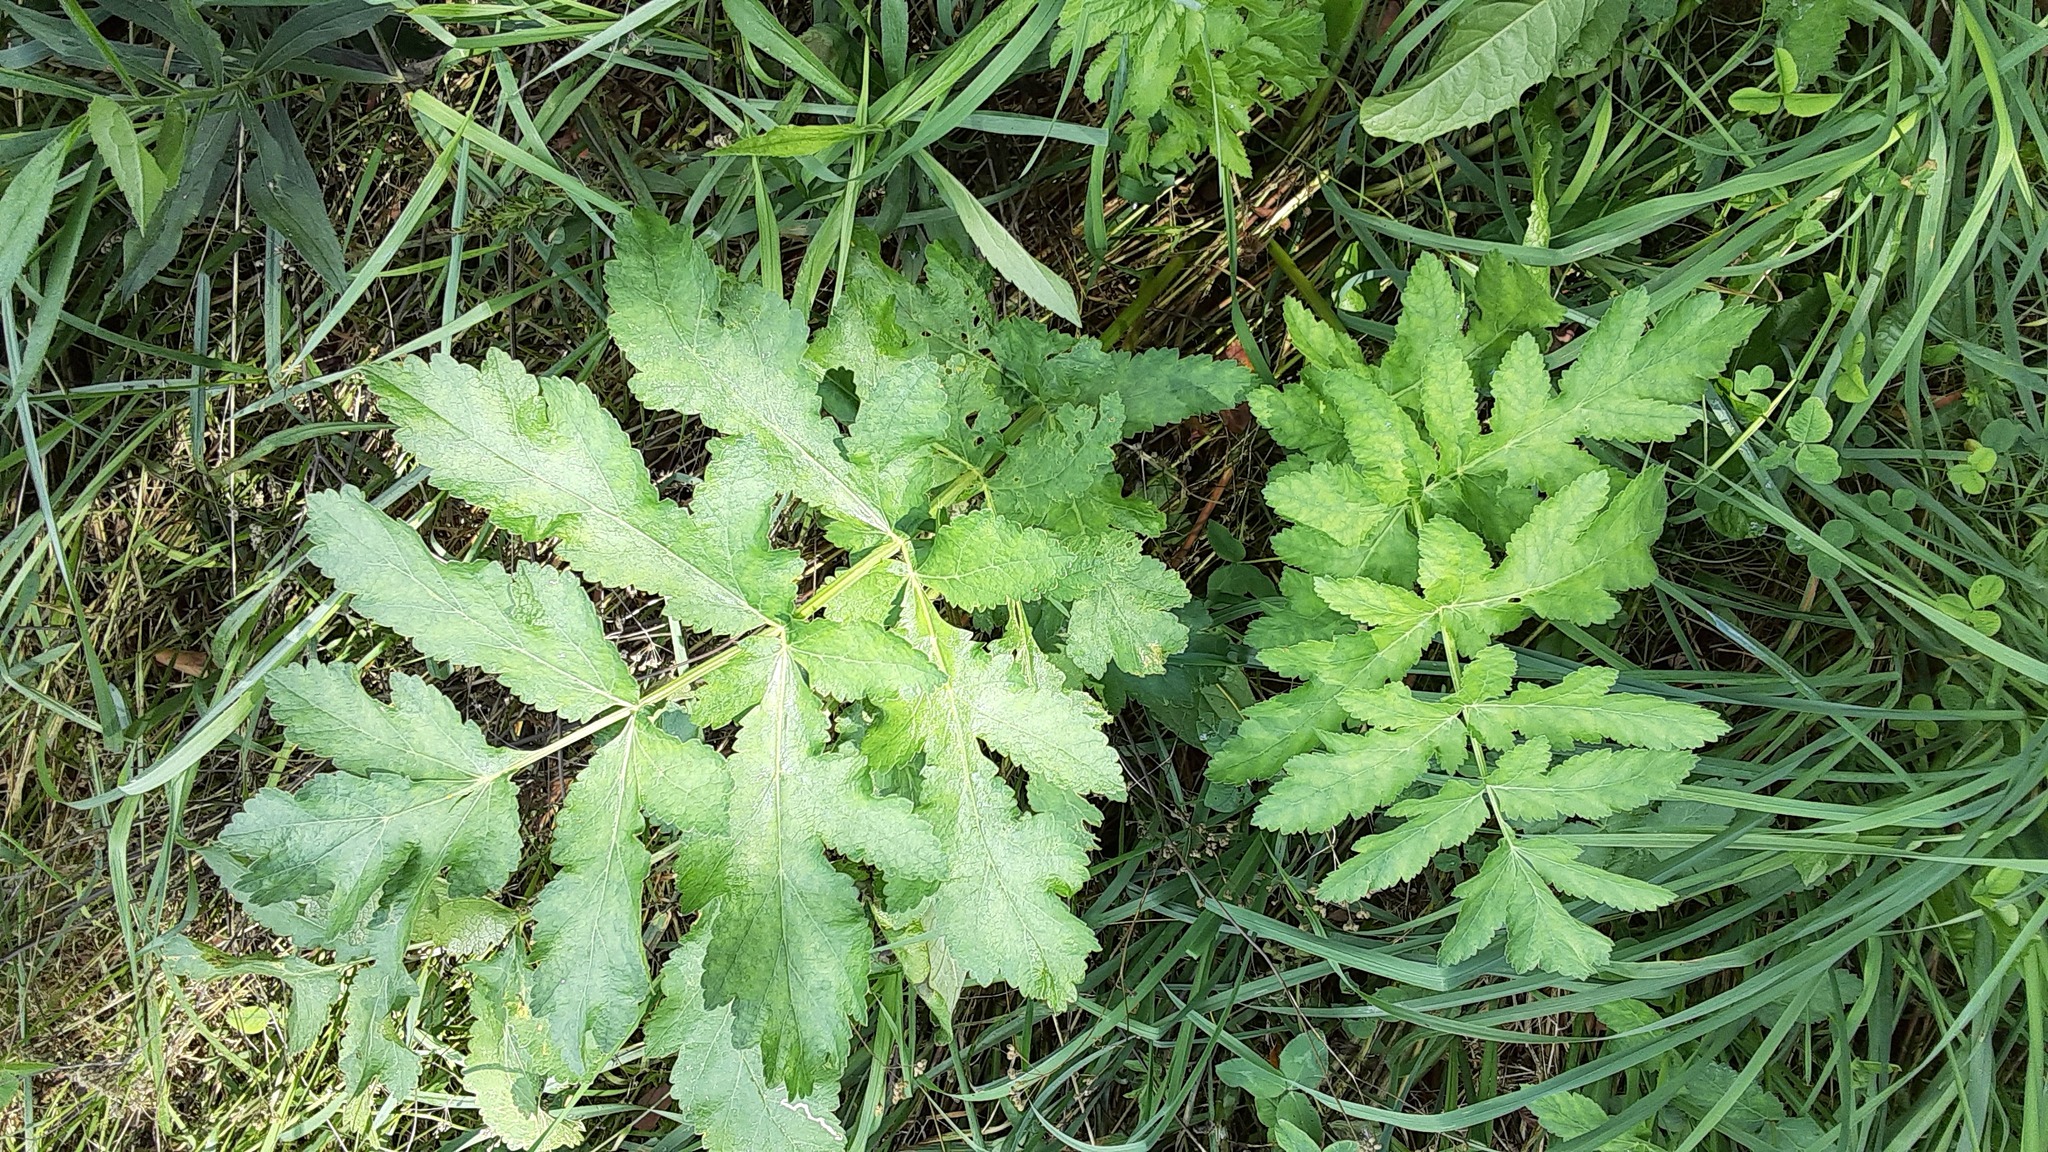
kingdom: Plantae
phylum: Tracheophyta
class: Magnoliopsida
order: Apiales
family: Apiaceae
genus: Pastinaca
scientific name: Pastinaca sativa
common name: Wild parsnip
